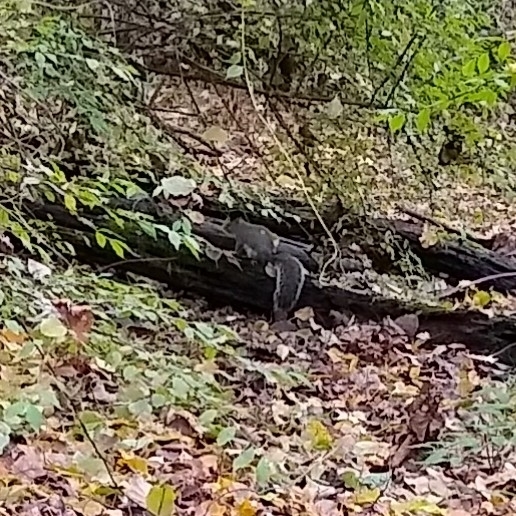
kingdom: Animalia
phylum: Chordata
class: Mammalia
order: Rodentia
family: Sciuridae
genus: Sciurus
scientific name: Sciurus carolinensis
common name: Eastern gray squirrel
